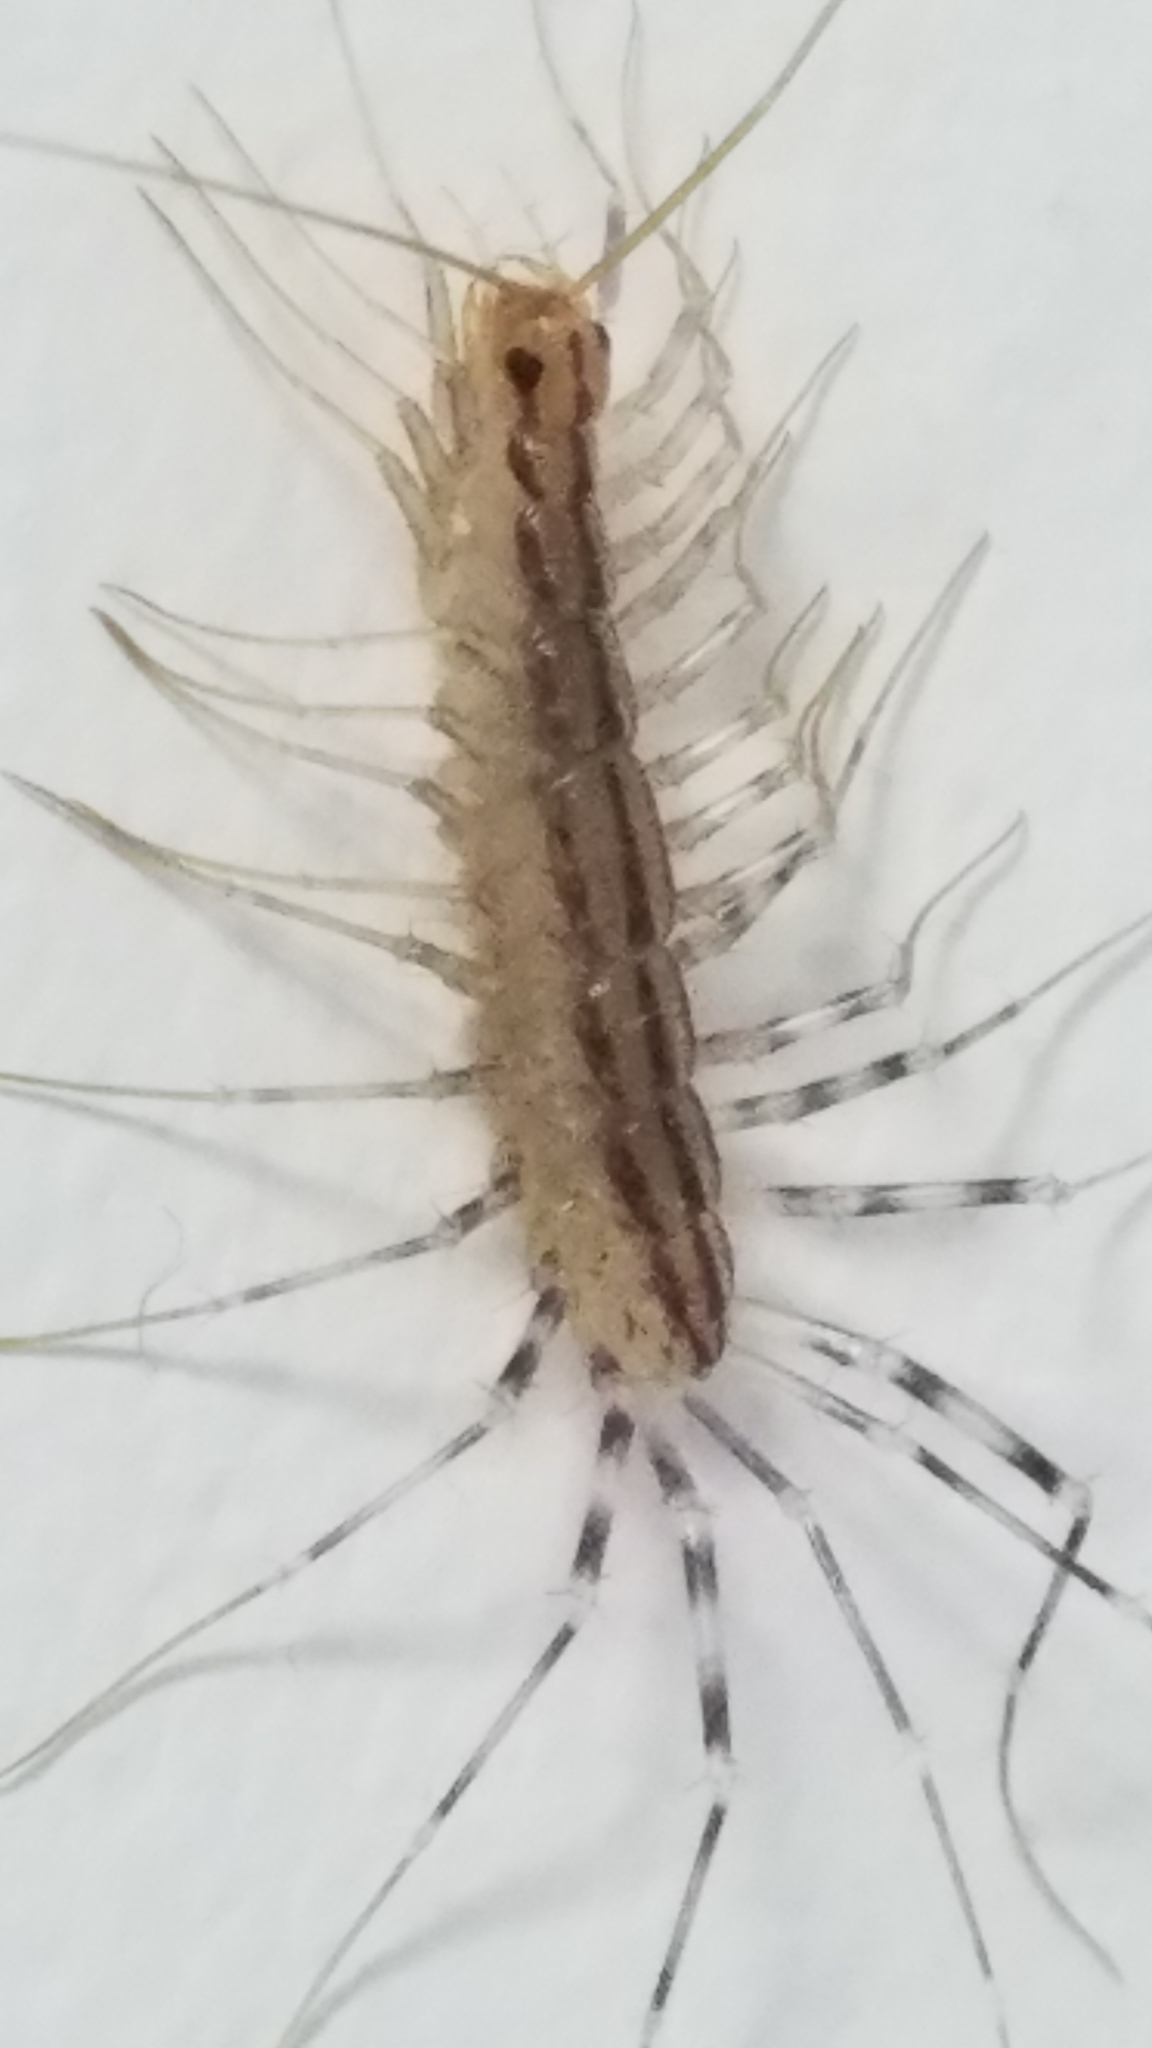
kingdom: Animalia
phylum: Arthropoda
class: Chilopoda
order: Scutigeromorpha
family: Scutigeridae
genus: Scutigera
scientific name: Scutigera coleoptrata
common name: House centipede
